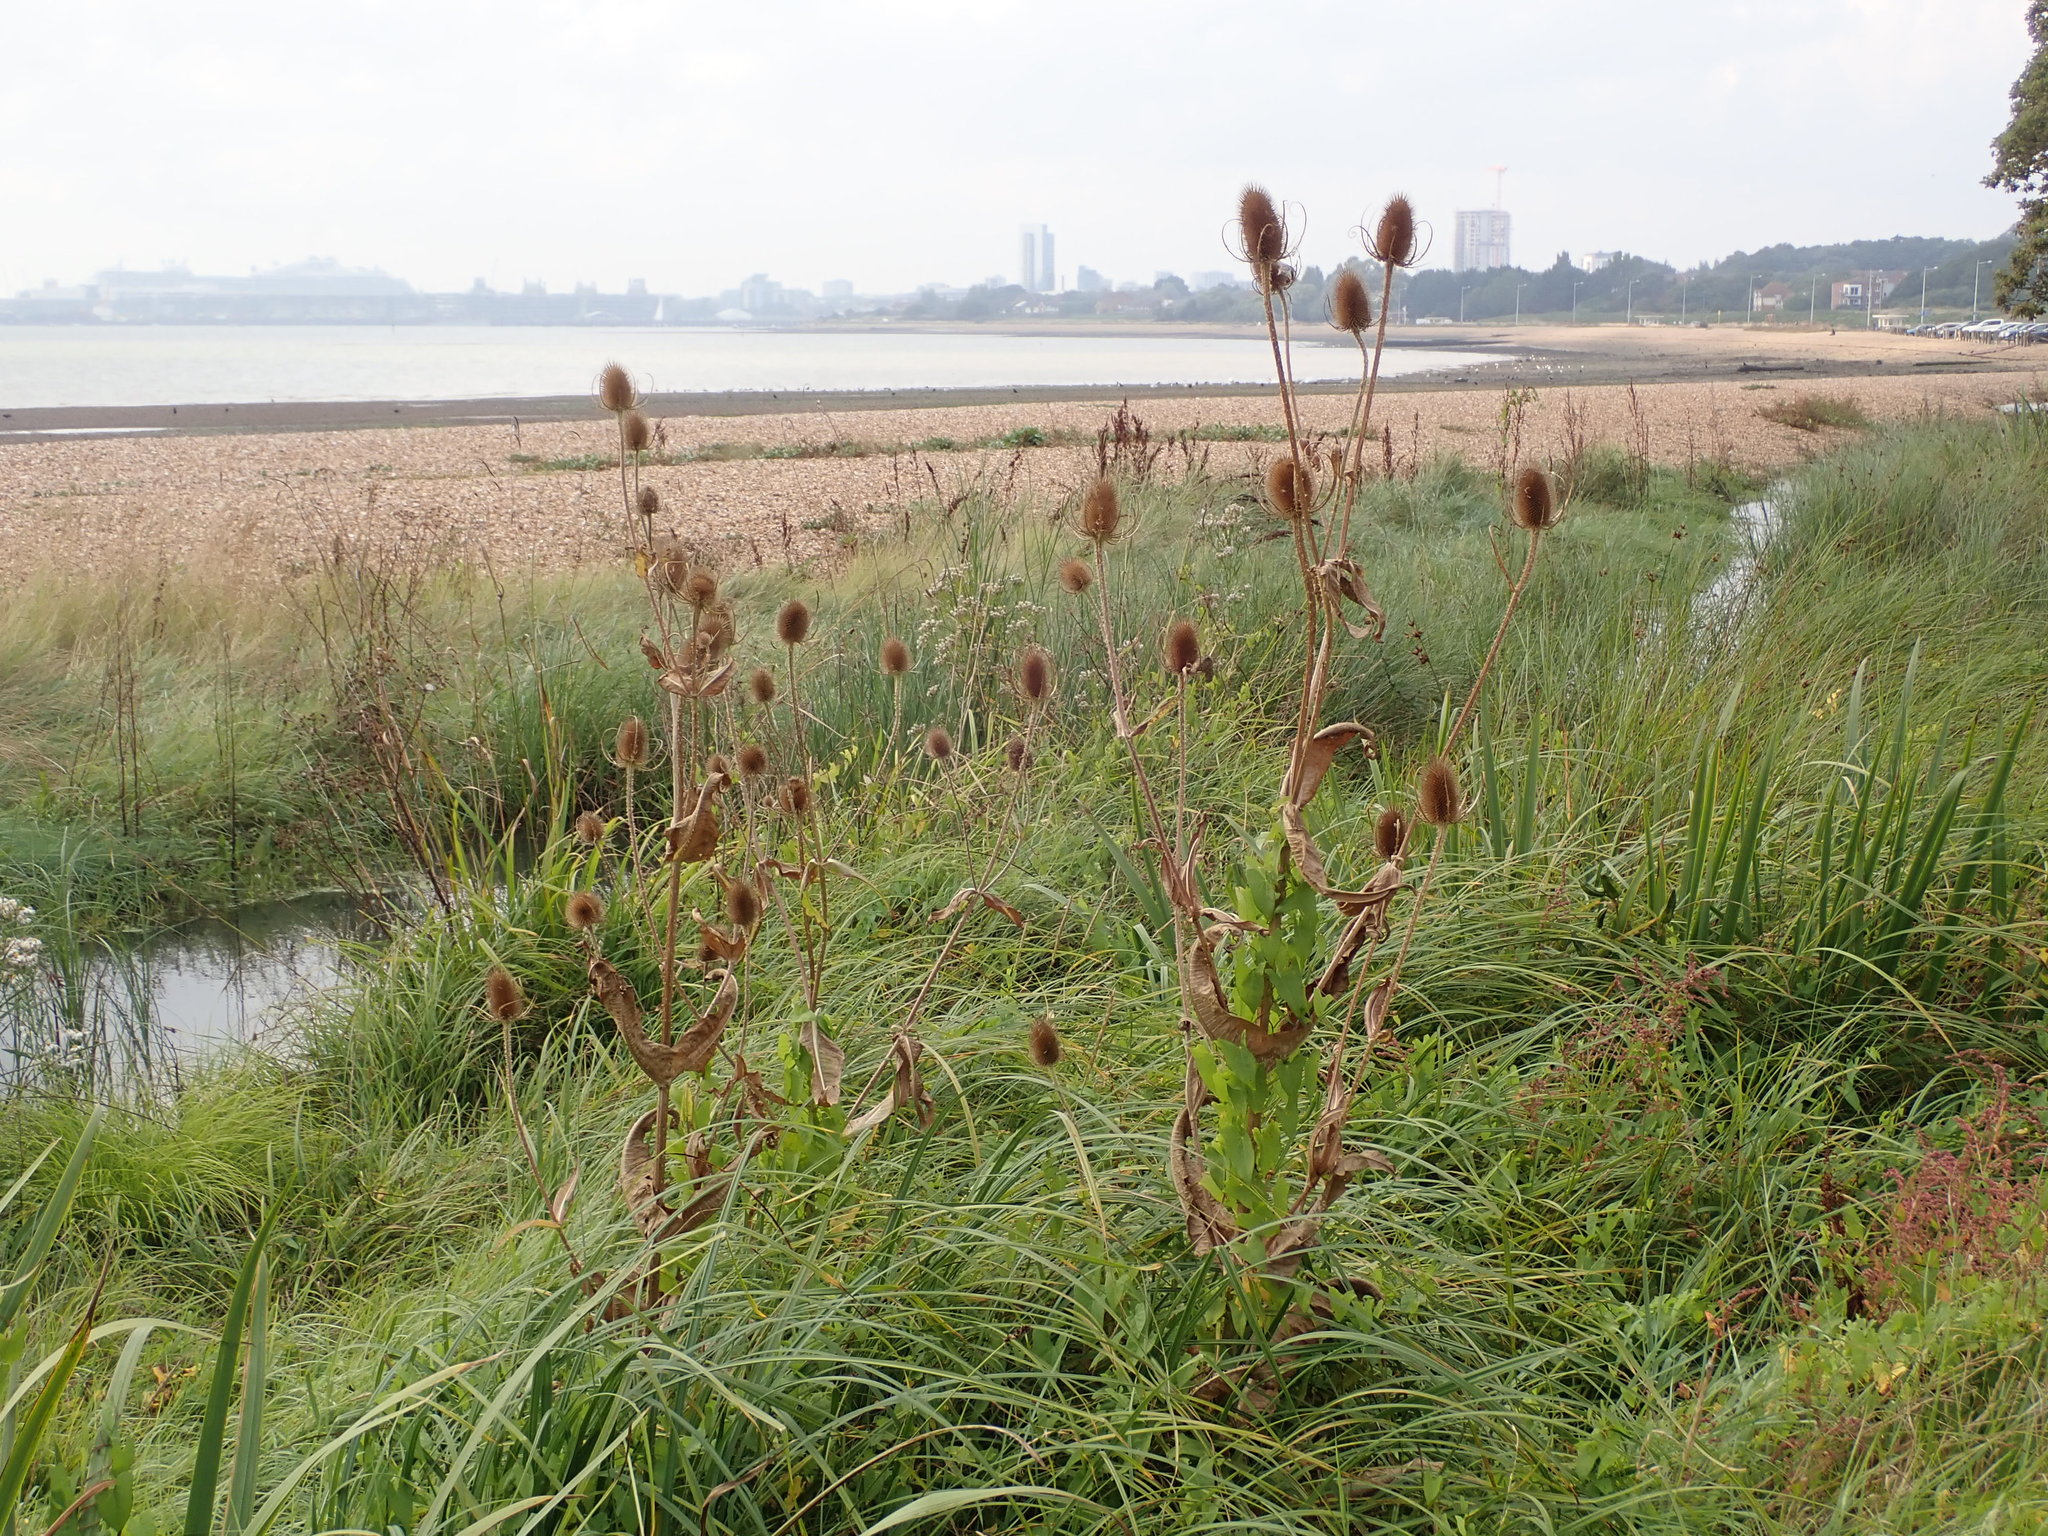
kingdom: Plantae
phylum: Tracheophyta
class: Magnoliopsida
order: Dipsacales
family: Caprifoliaceae
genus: Dipsacus
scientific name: Dipsacus fullonum
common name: Teasel
